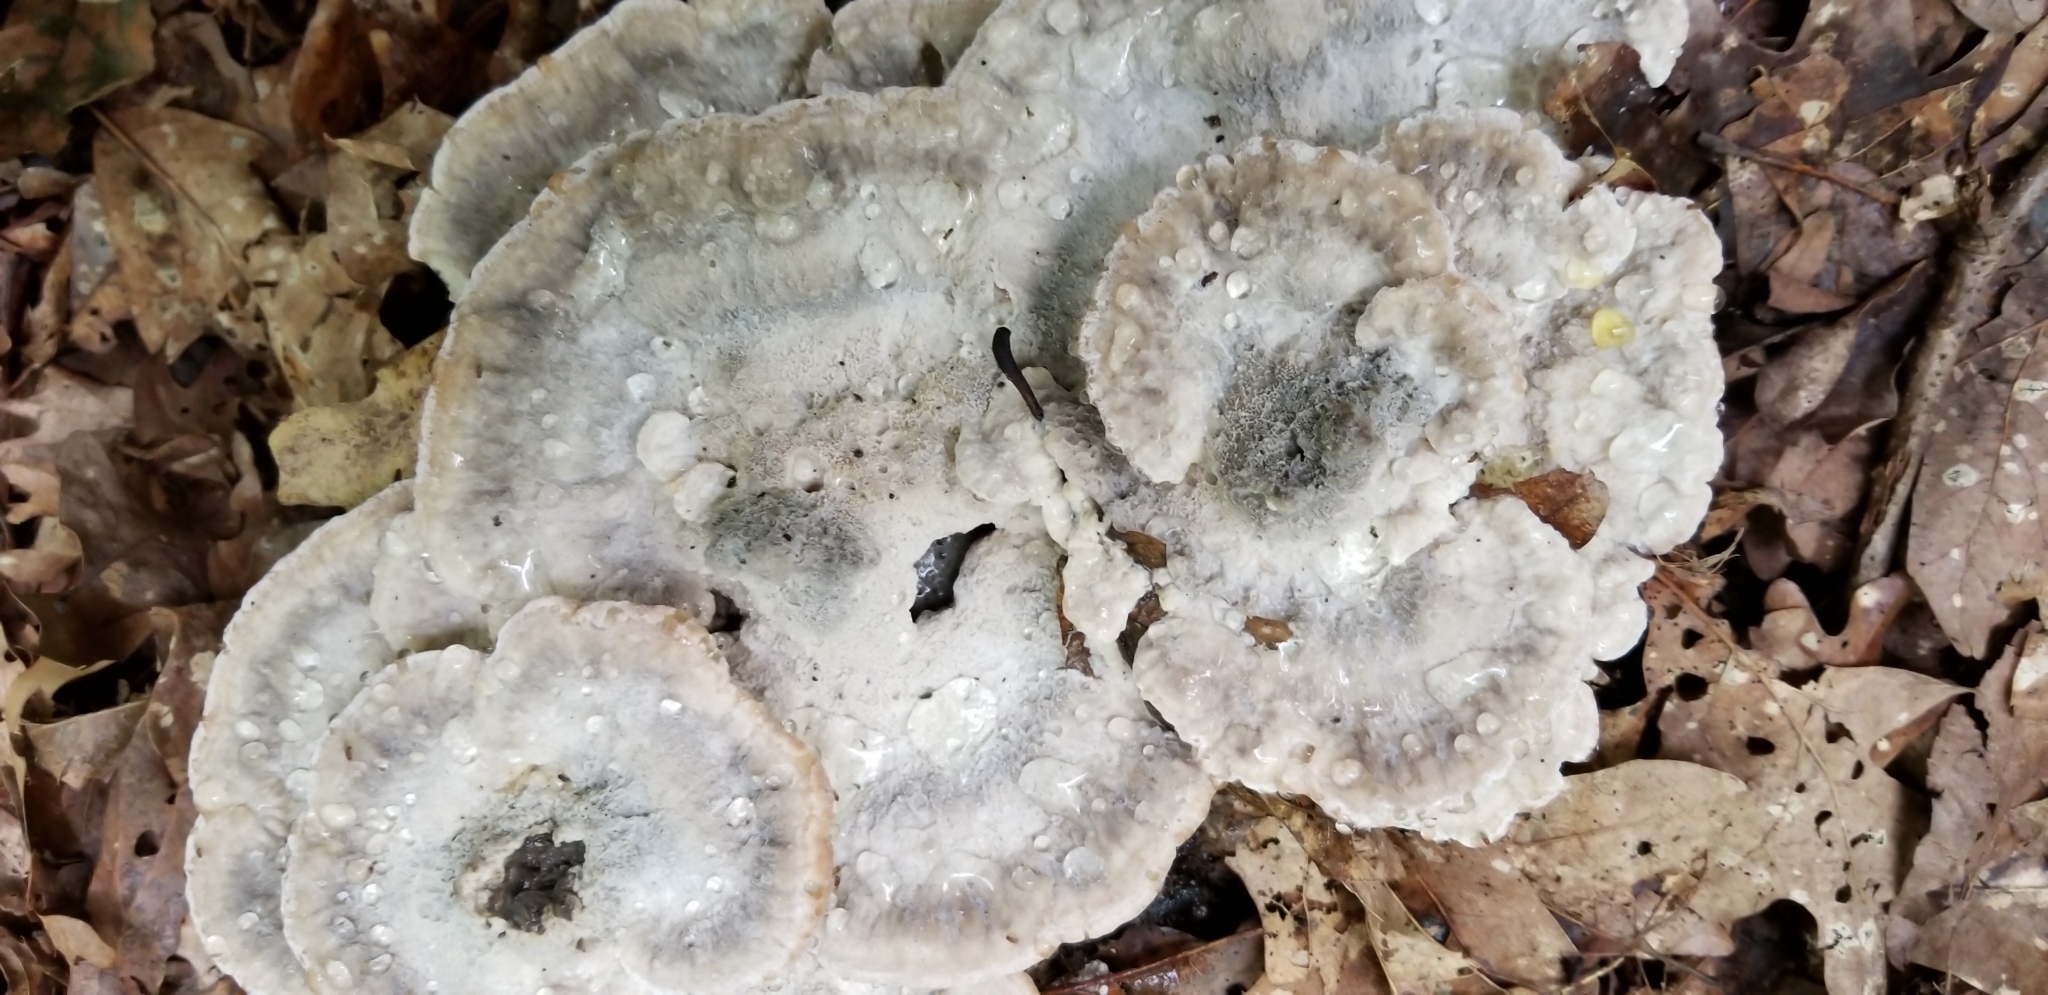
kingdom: Fungi
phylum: Basidiomycota
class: Agaricomycetes
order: Polyporales
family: Fomitopsidaceae
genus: Niveoporofomes
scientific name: Niveoporofomes spraguei
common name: Green cheese polypore
